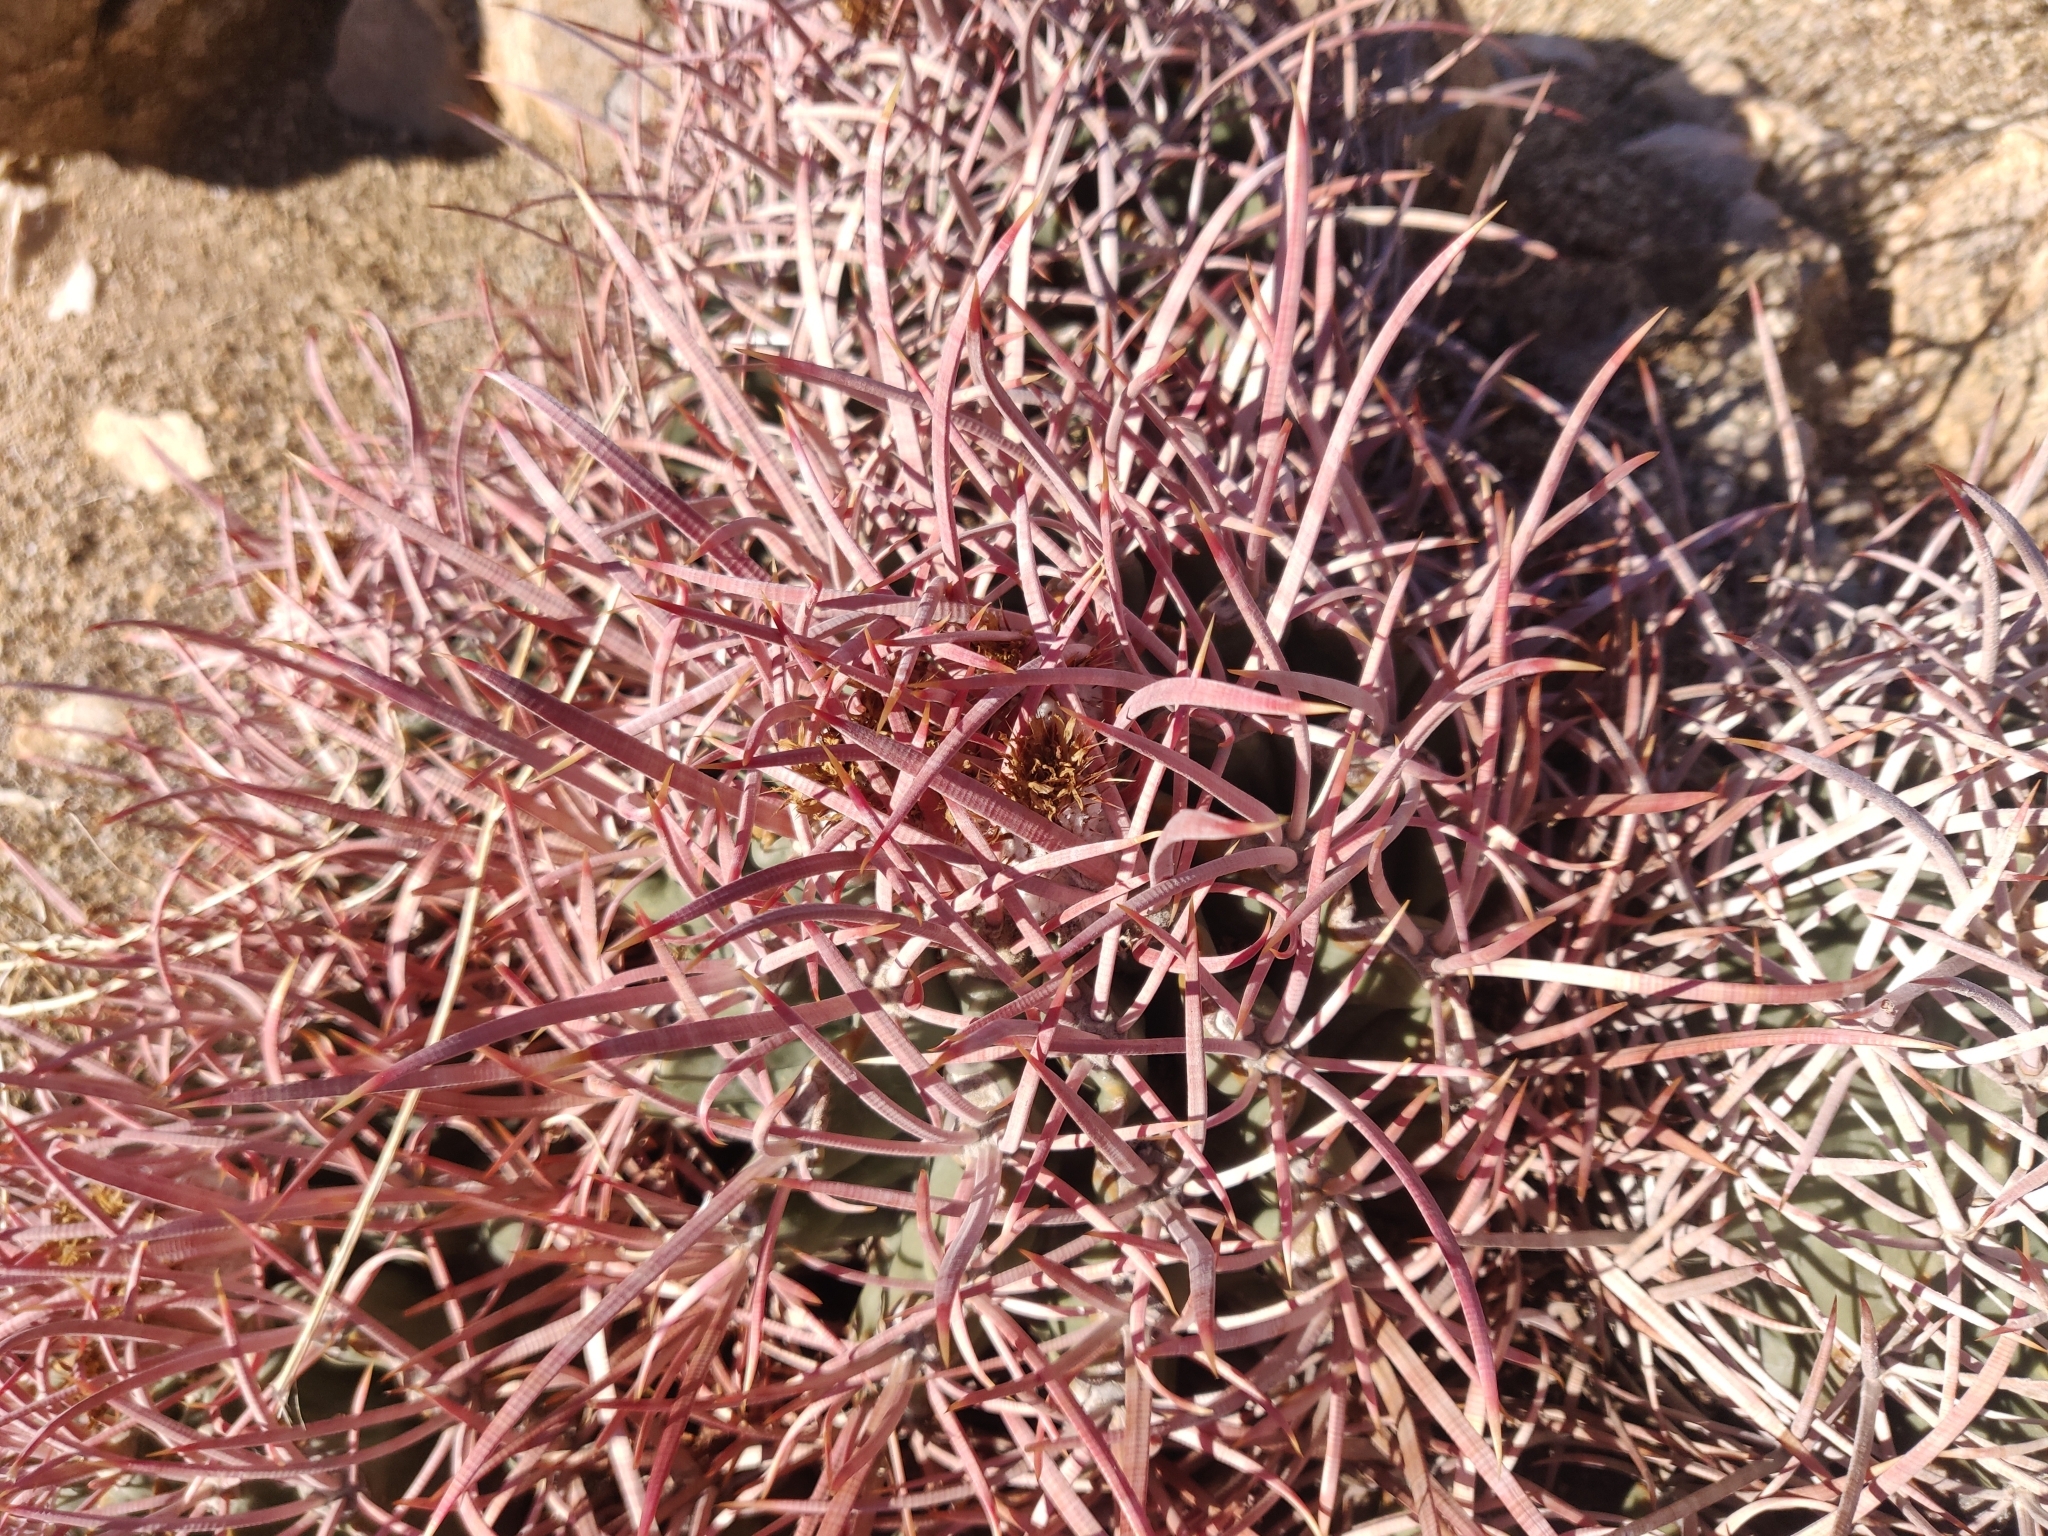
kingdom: Plantae
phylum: Tracheophyta
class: Magnoliopsida
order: Caryophyllales
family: Cactaceae
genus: Echinocactus
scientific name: Echinocactus polycephalus
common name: Cottontop cactus
